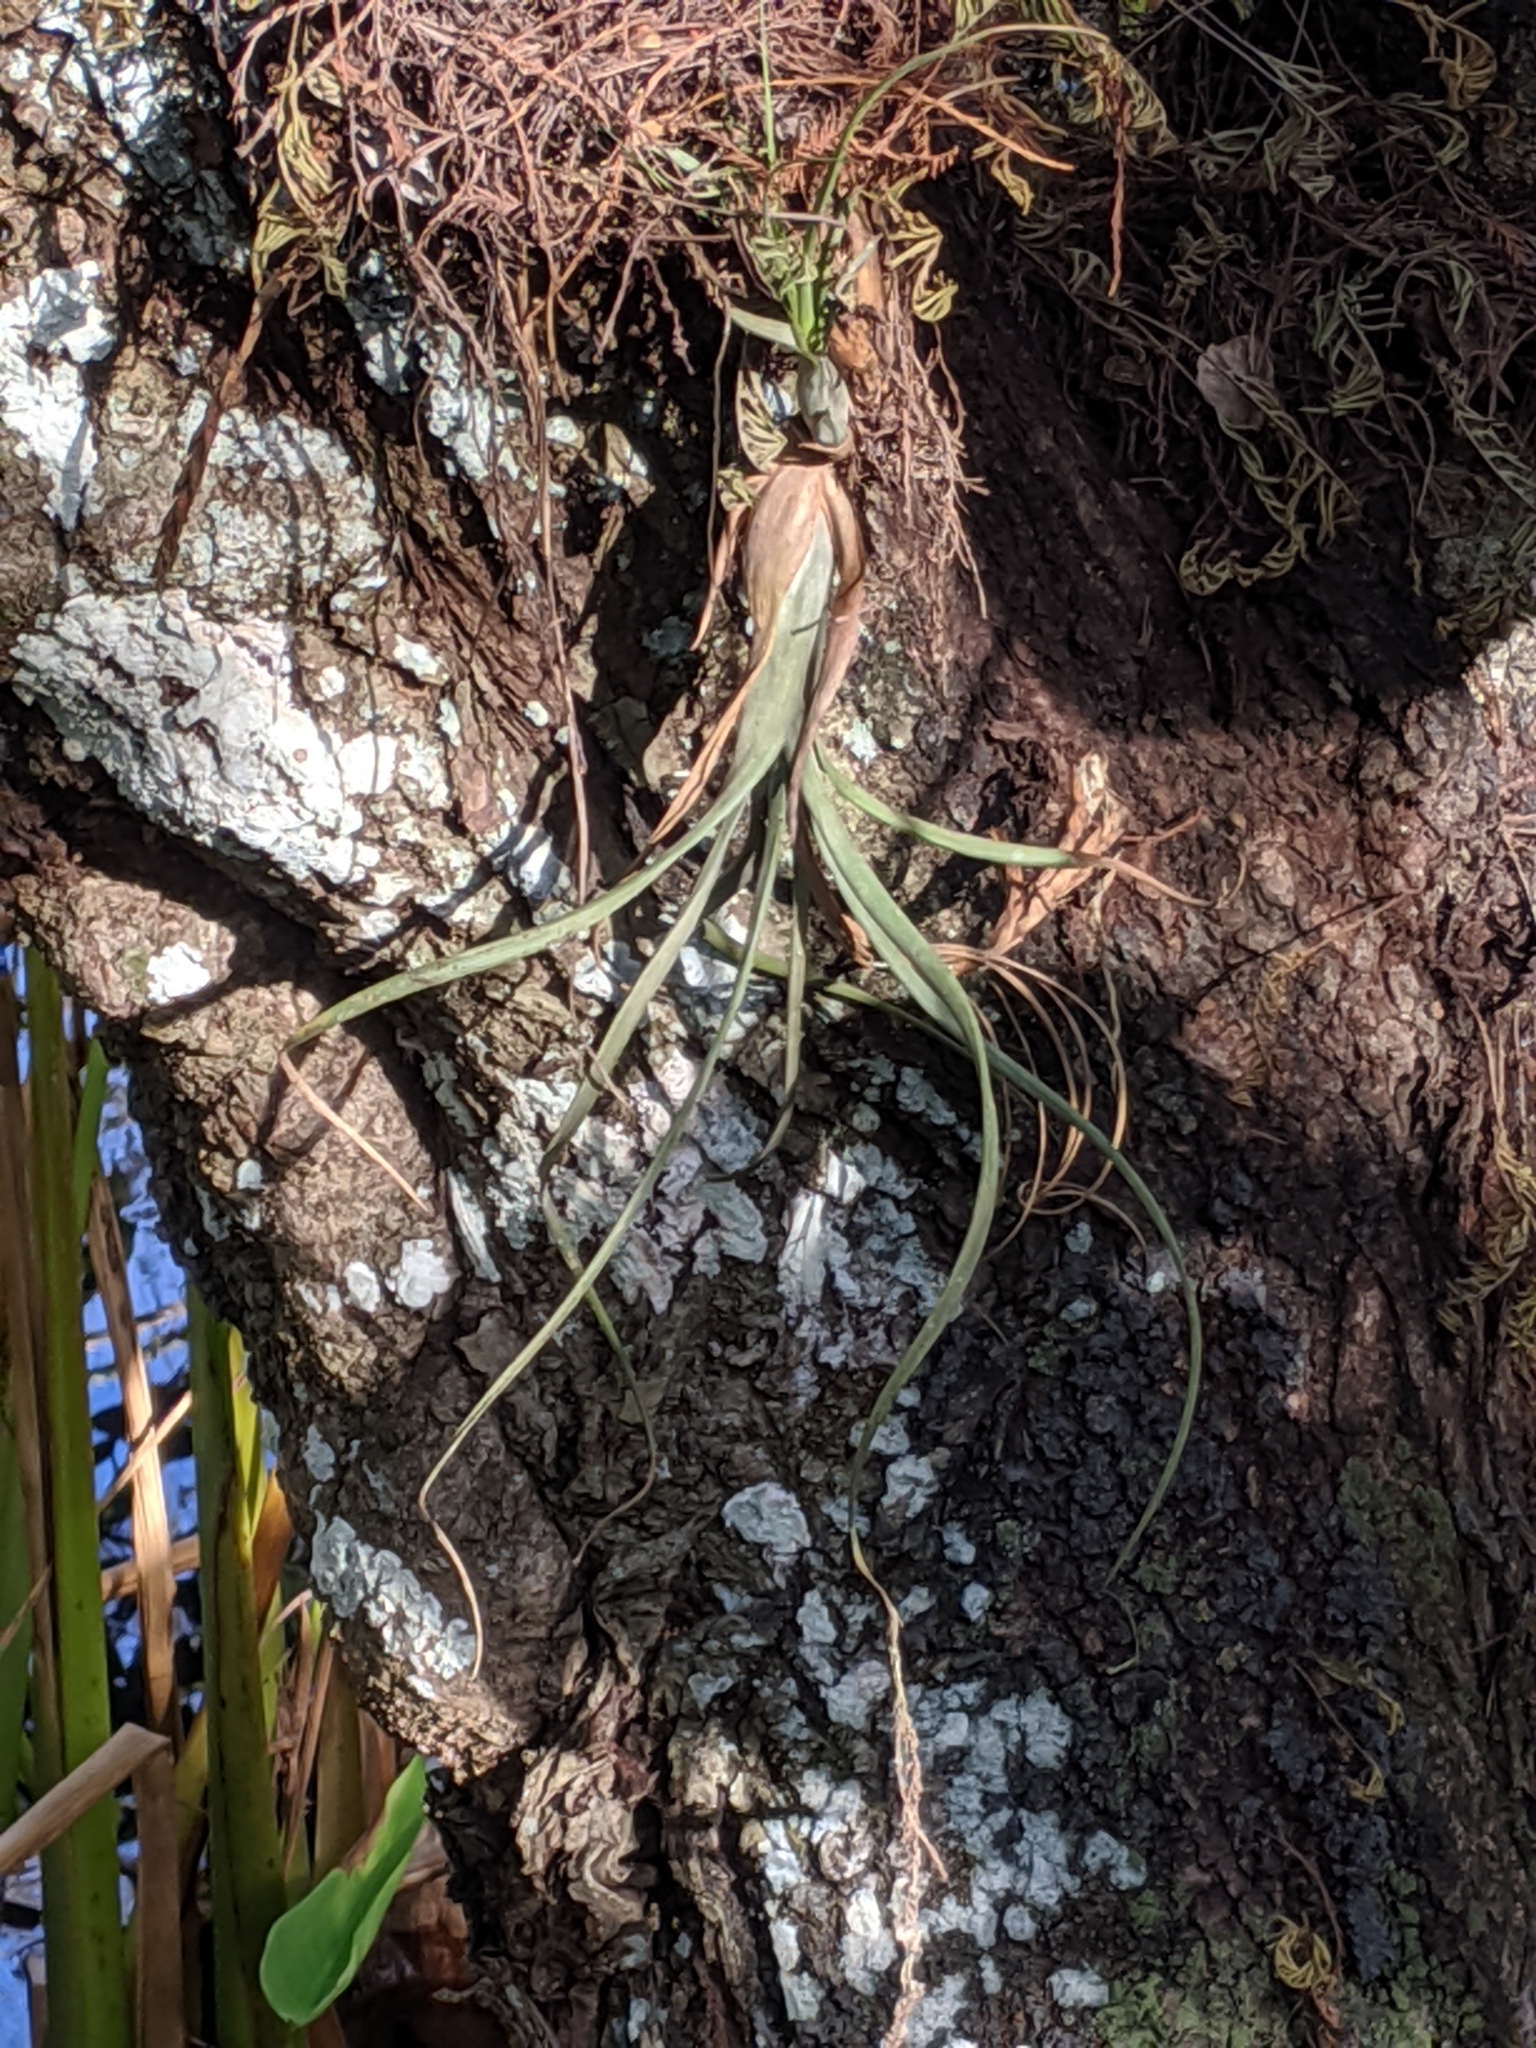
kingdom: Plantae
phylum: Tracheophyta
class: Liliopsida
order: Poales
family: Bromeliaceae
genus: Tillandsia
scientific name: Tillandsia balbisiana
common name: Northern needleleaf
